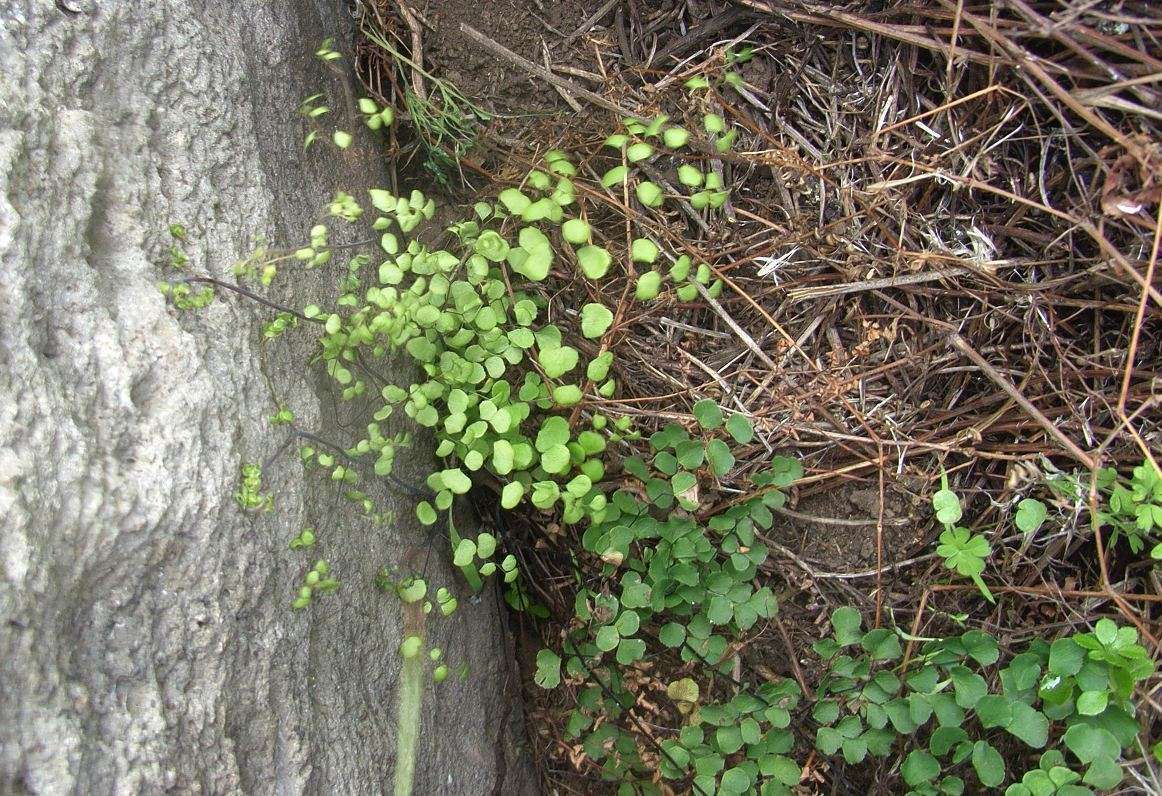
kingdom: Plantae
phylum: Tracheophyta
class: Polypodiopsida
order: Polypodiales
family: Pteridaceae
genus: Adiantum
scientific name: Adiantum aethiopicum
